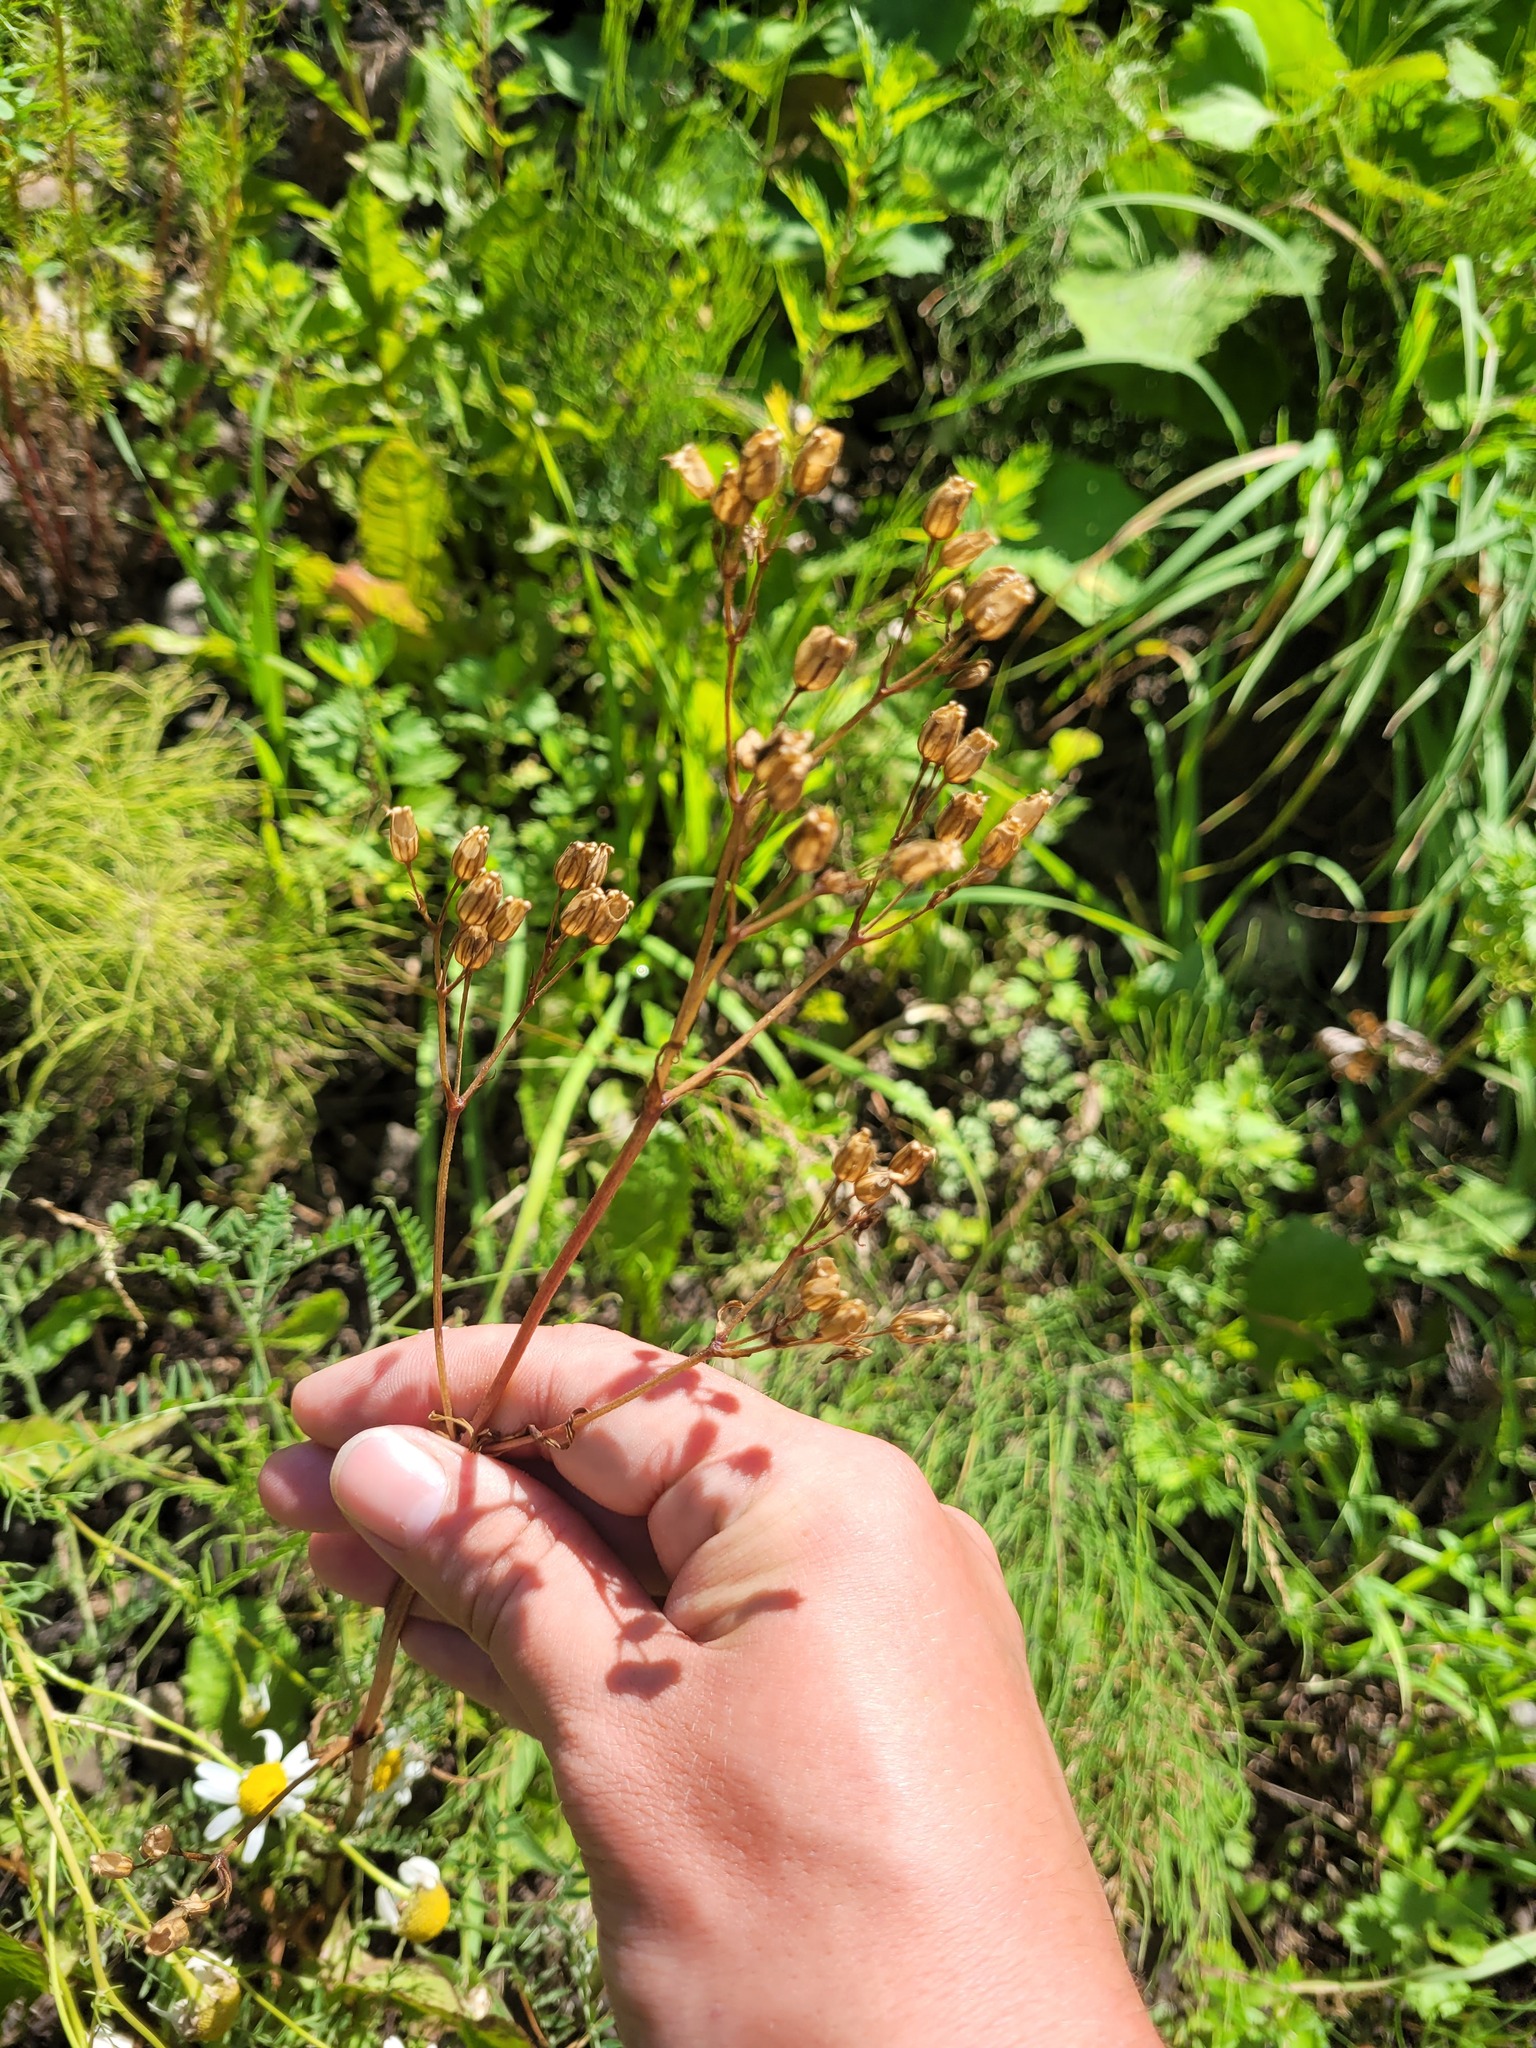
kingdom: Plantae
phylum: Tracheophyta
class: Magnoliopsida
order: Caryophyllales
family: Caryophyllaceae
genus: Silene
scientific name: Silene flos-cuculi
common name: Ragged-robin
